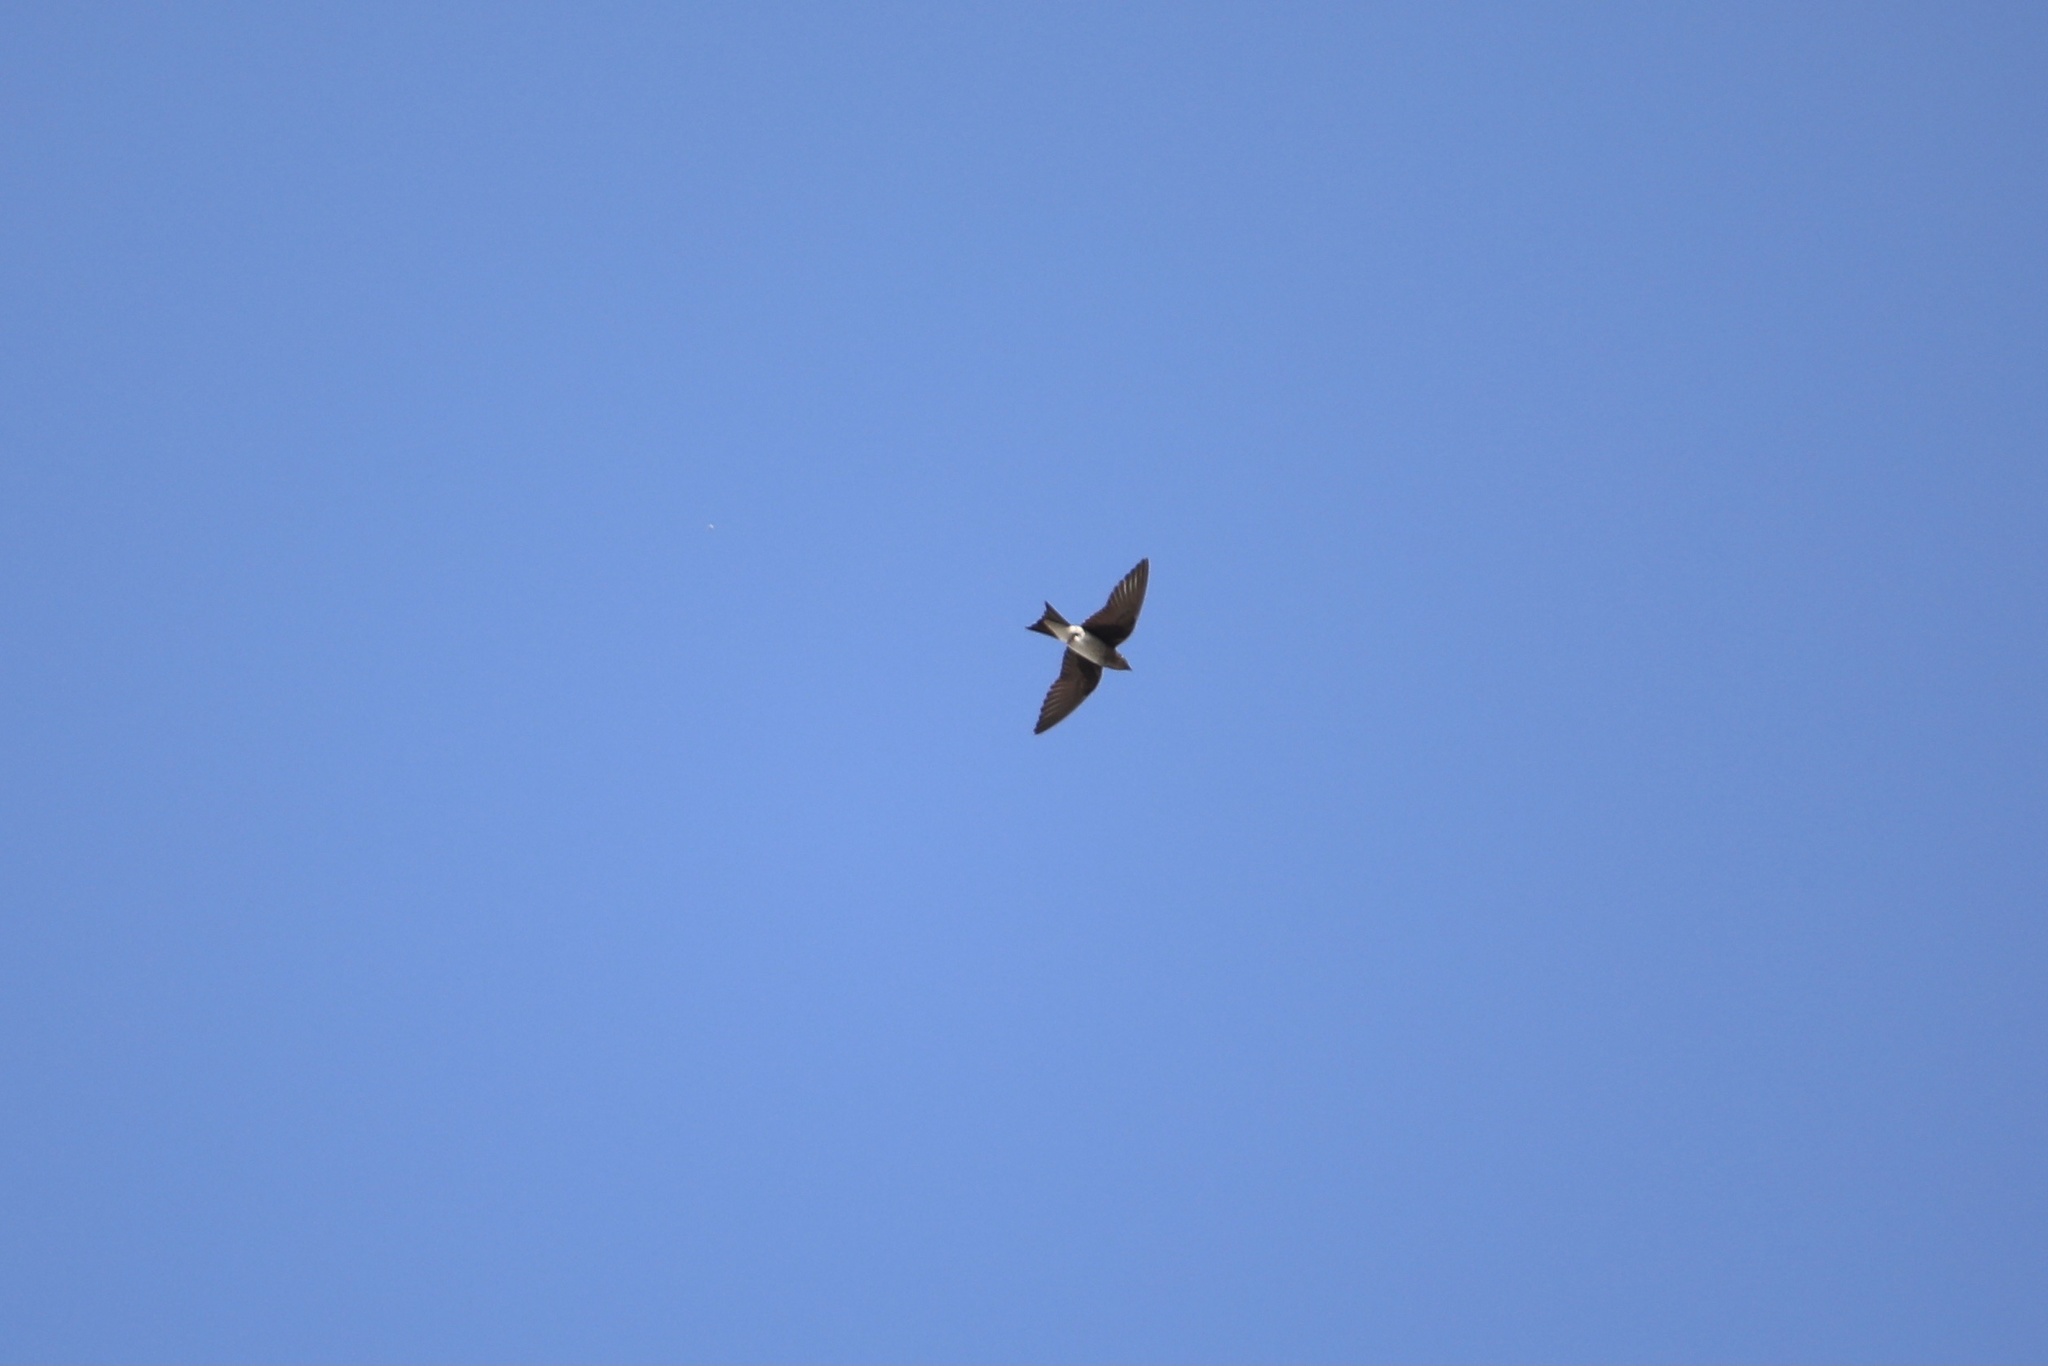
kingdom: Animalia
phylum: Chordata
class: Aves
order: Passeriformes
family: Hirundinidae
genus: Progne
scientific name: Progne chalybea
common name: Grey-breasted martin
